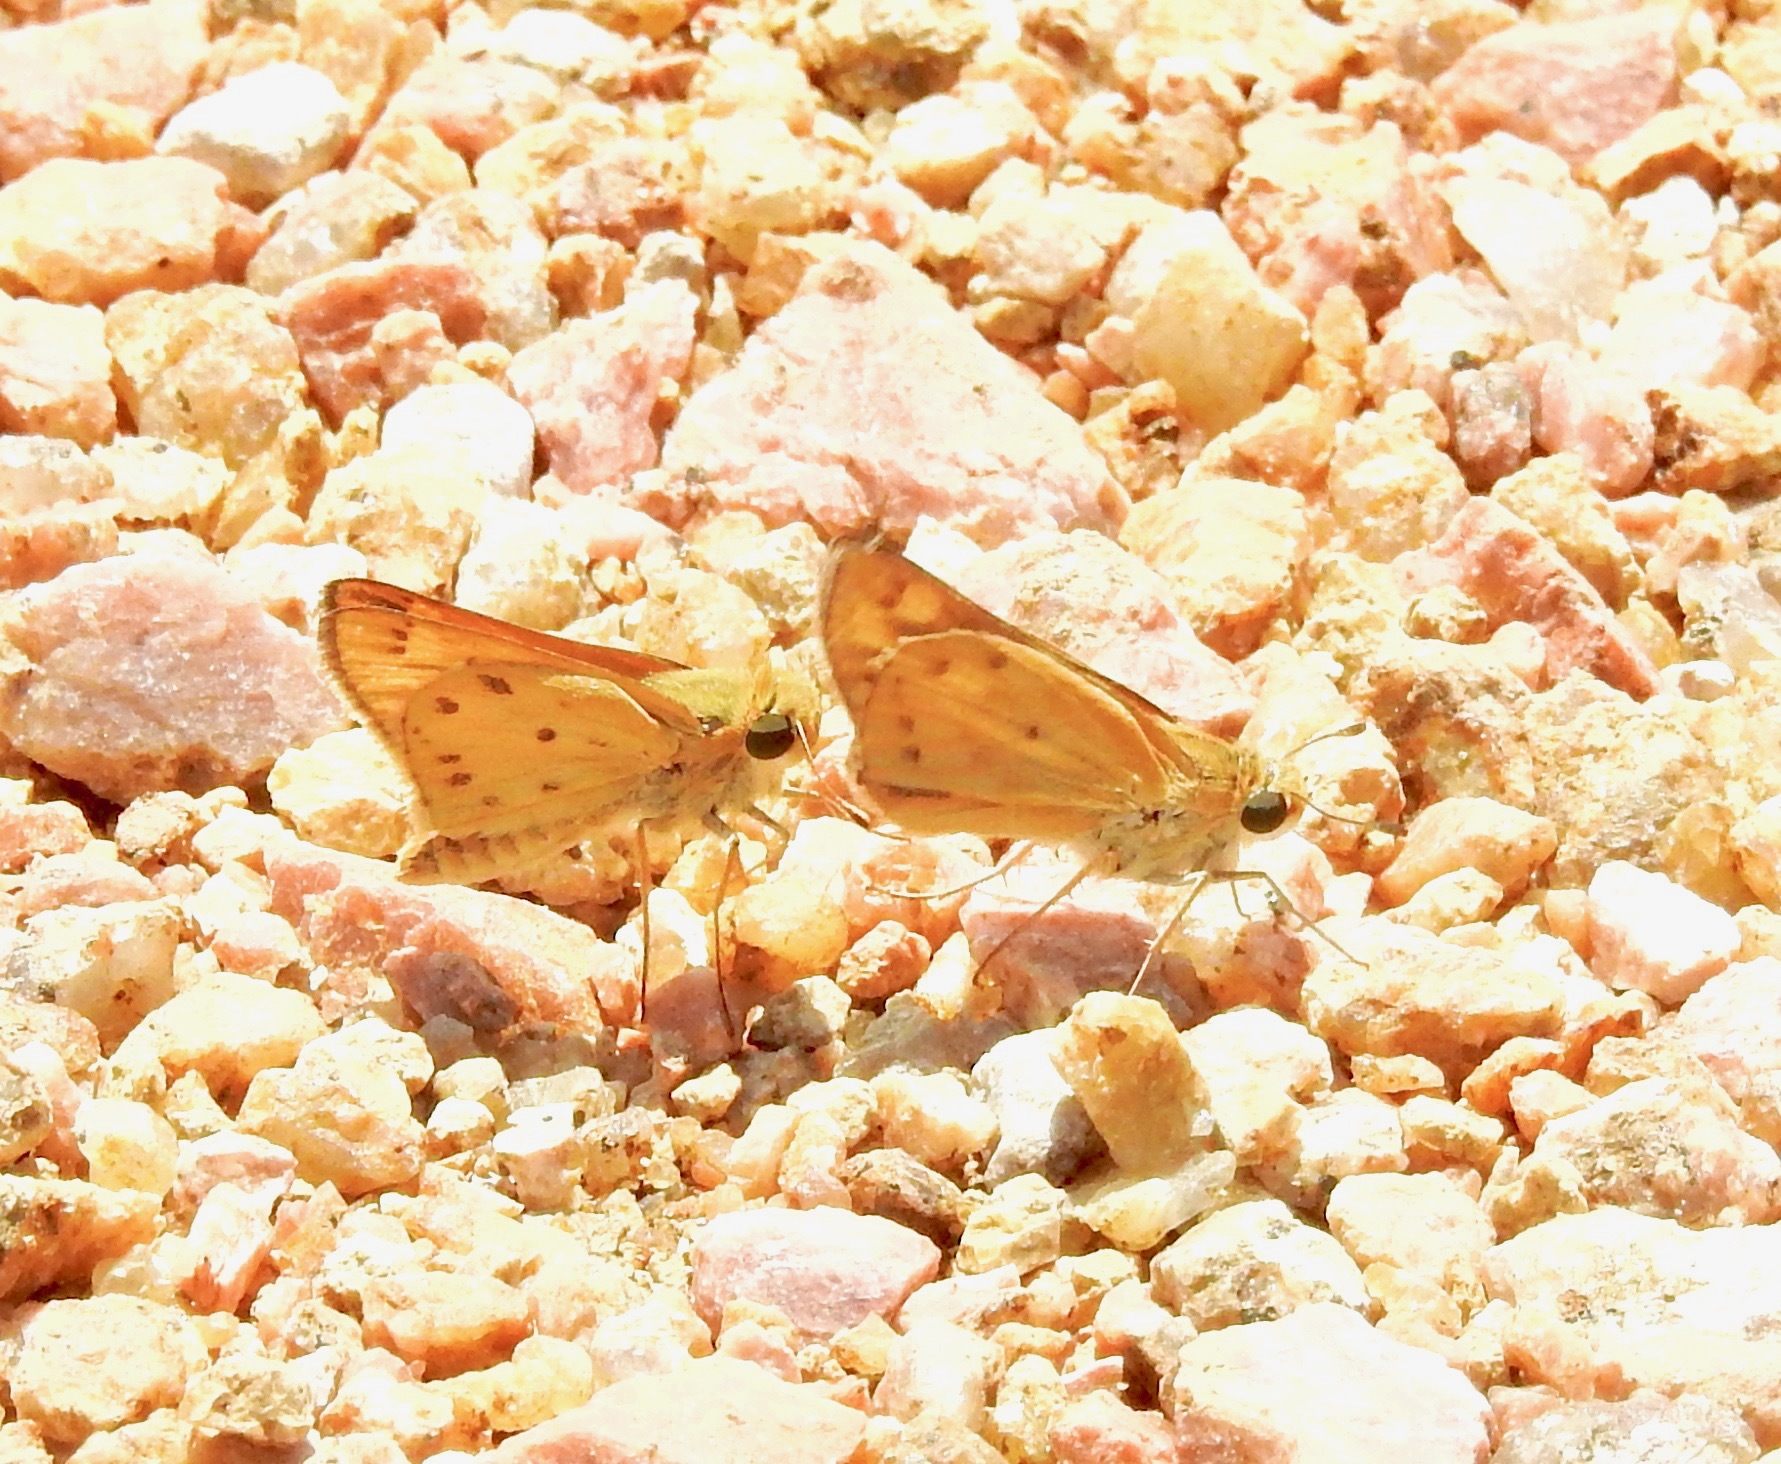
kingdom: Animalia
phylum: Arthropoda
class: Insecta
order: Lepidoptera
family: Hesperiidae
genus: Hylephila
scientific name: Hylephila phyleus
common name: Fiery skipper
